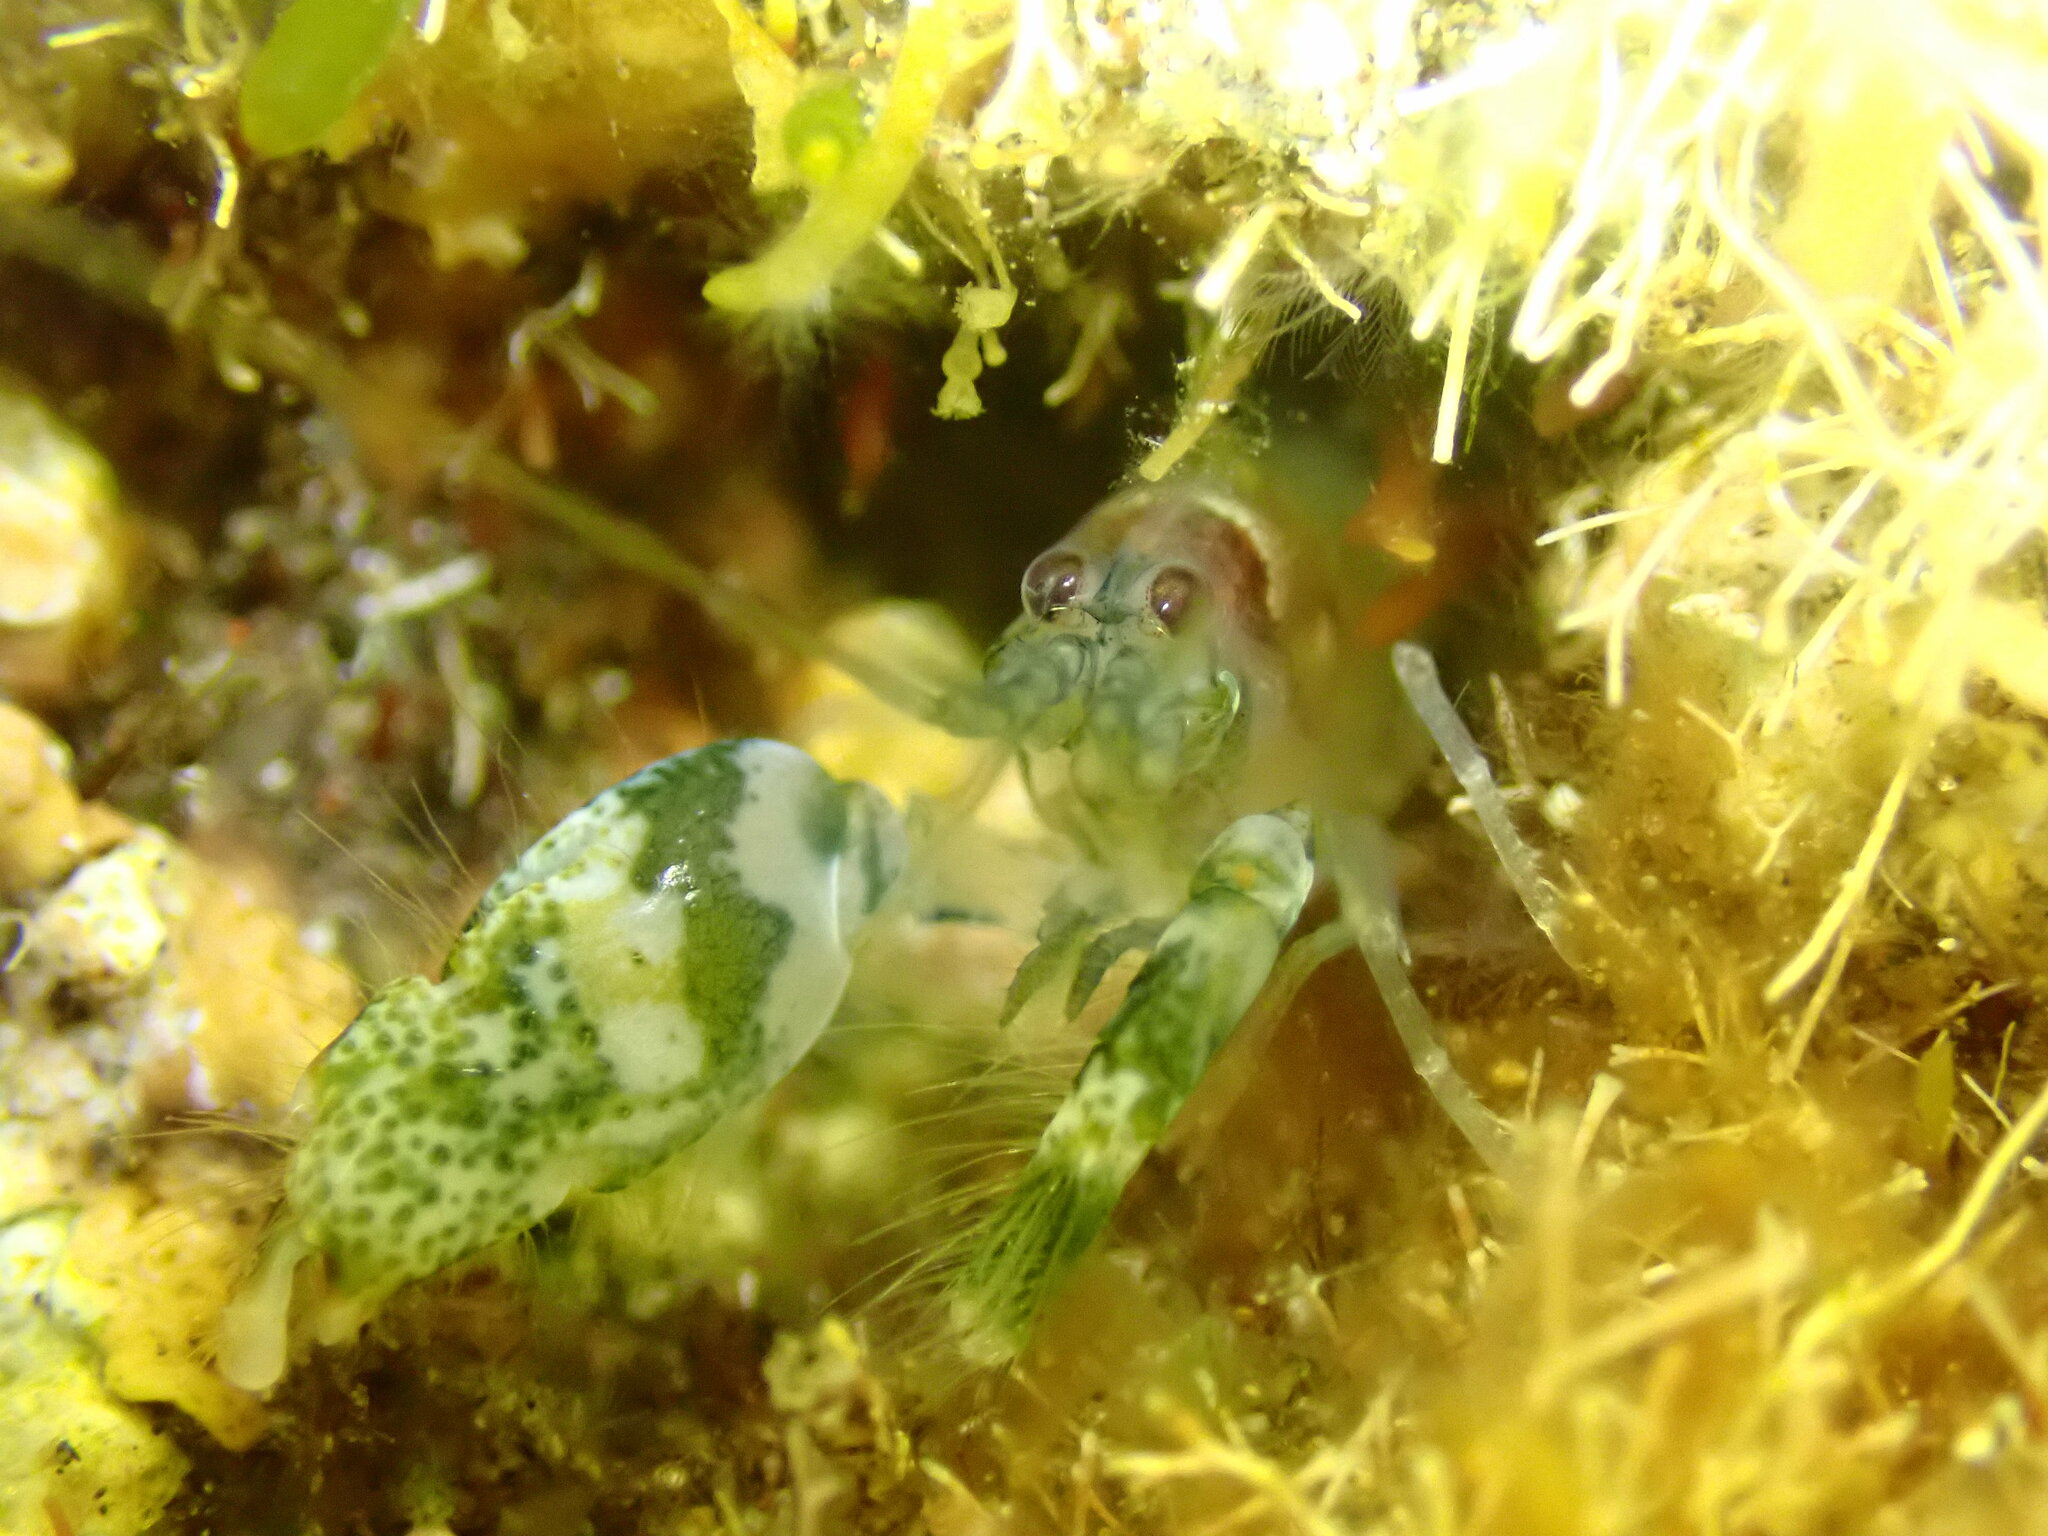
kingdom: Animalia
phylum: Arthropoda
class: Malacostraca
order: Decapoda
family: Alpheidae
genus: Alpheus
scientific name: Alpheus dentipes
